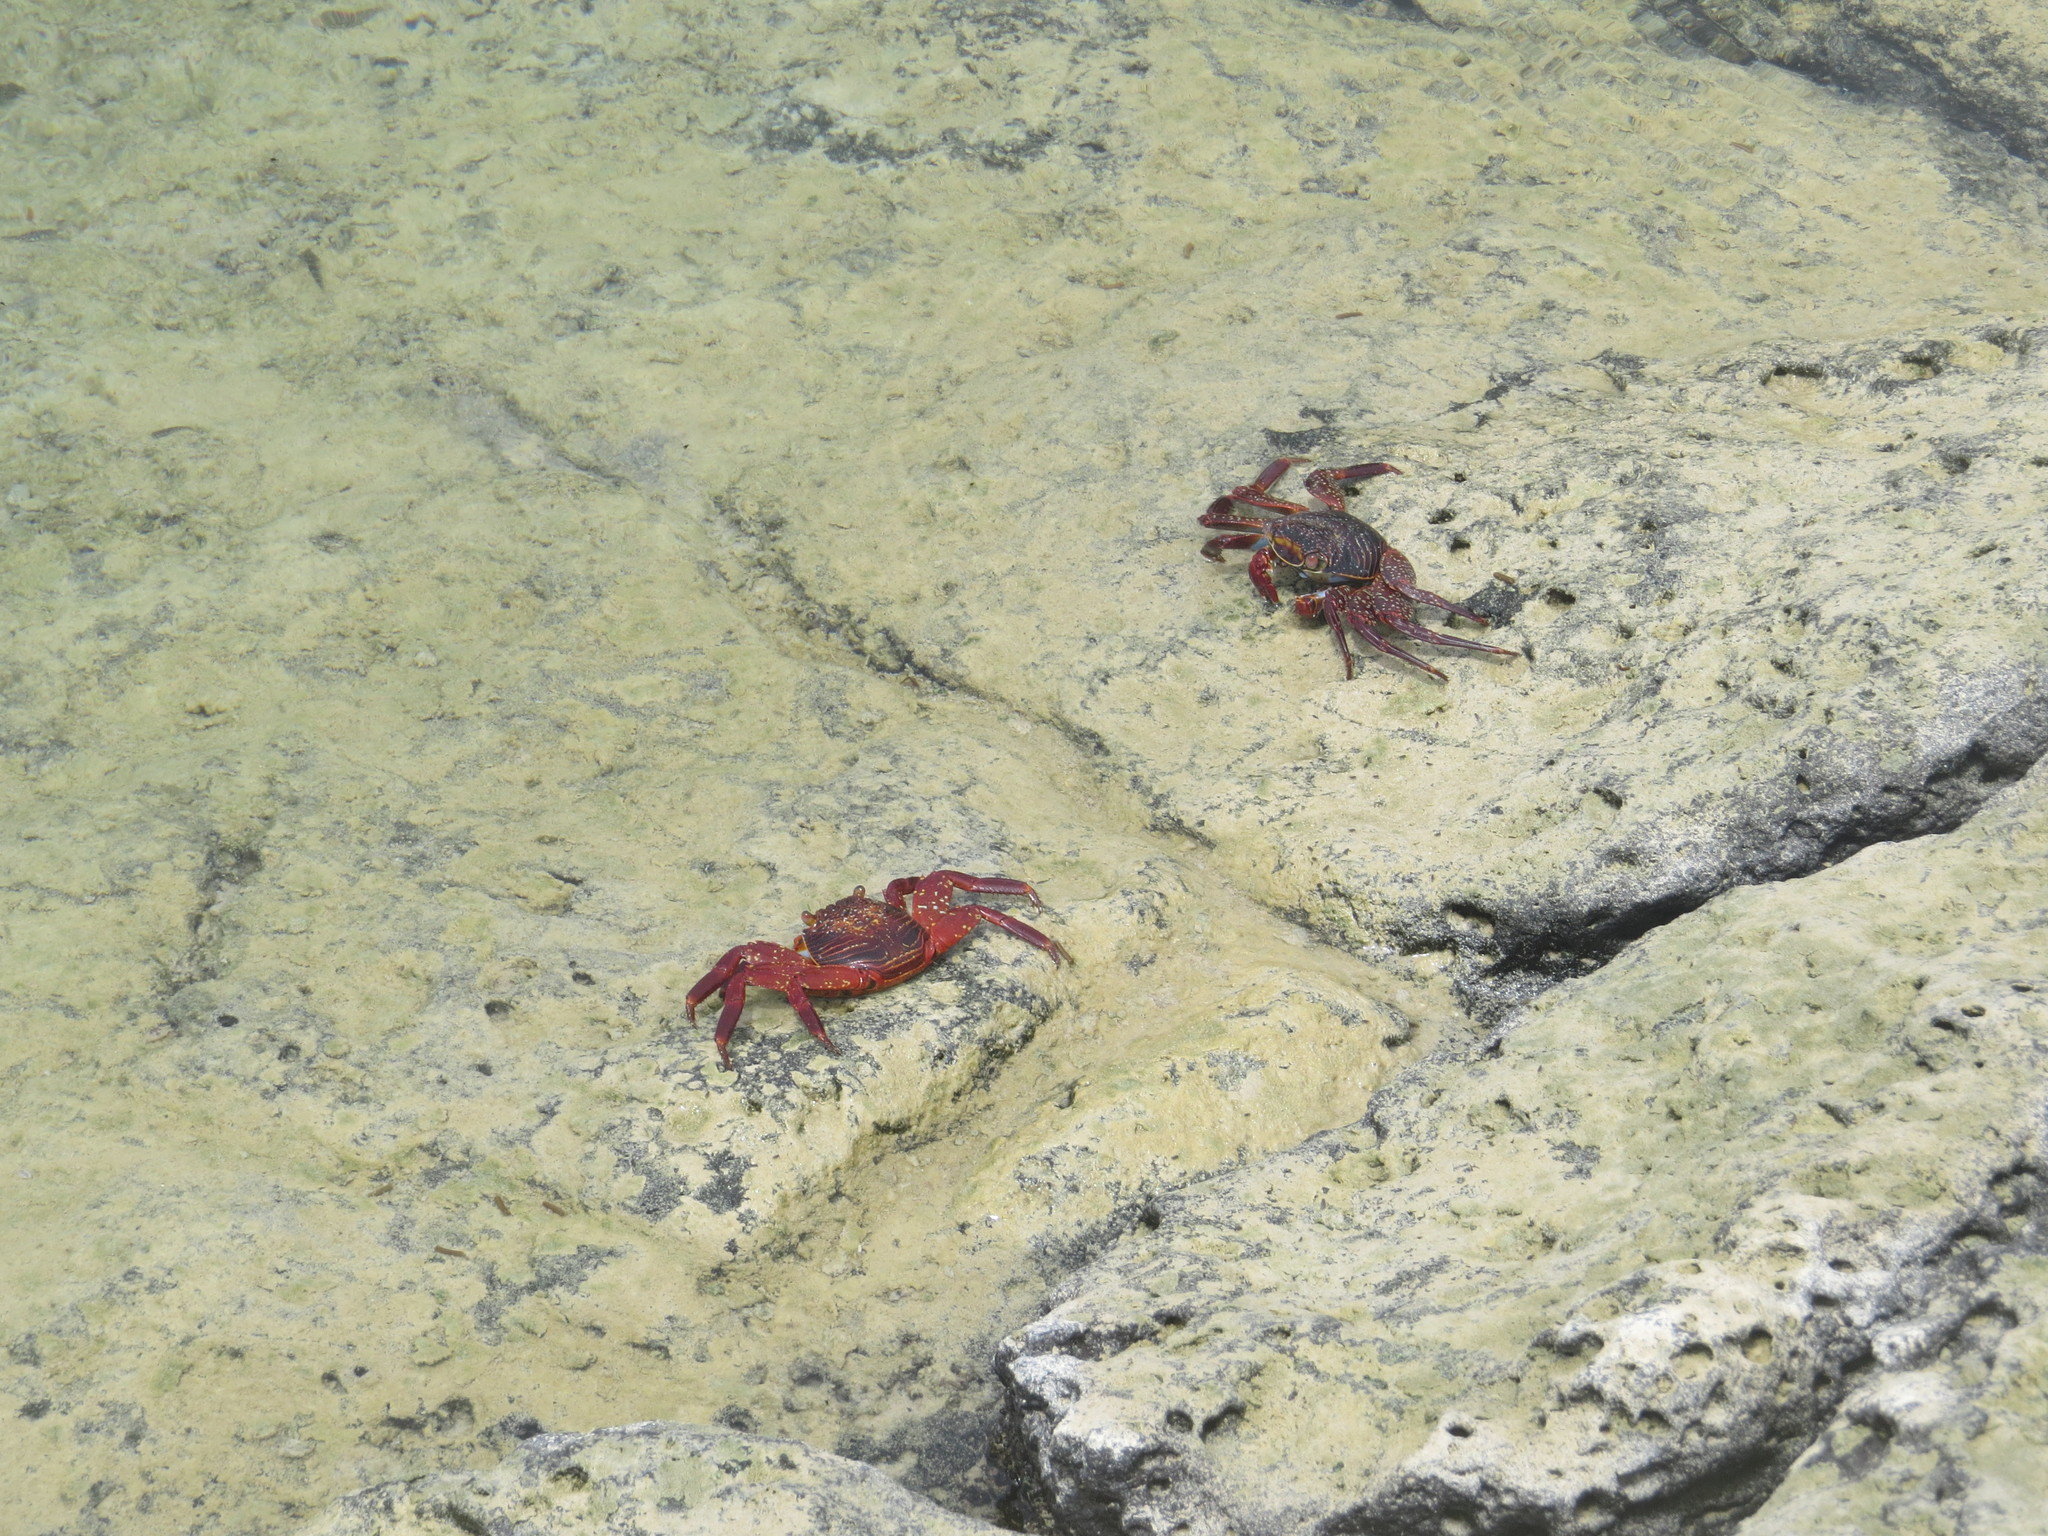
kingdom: Animalia
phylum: Arthropoda
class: Malacostraca
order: Decapoda
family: Grapsidae
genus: Grapsus
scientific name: Grapsus grapsus
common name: Sally lightfoot
